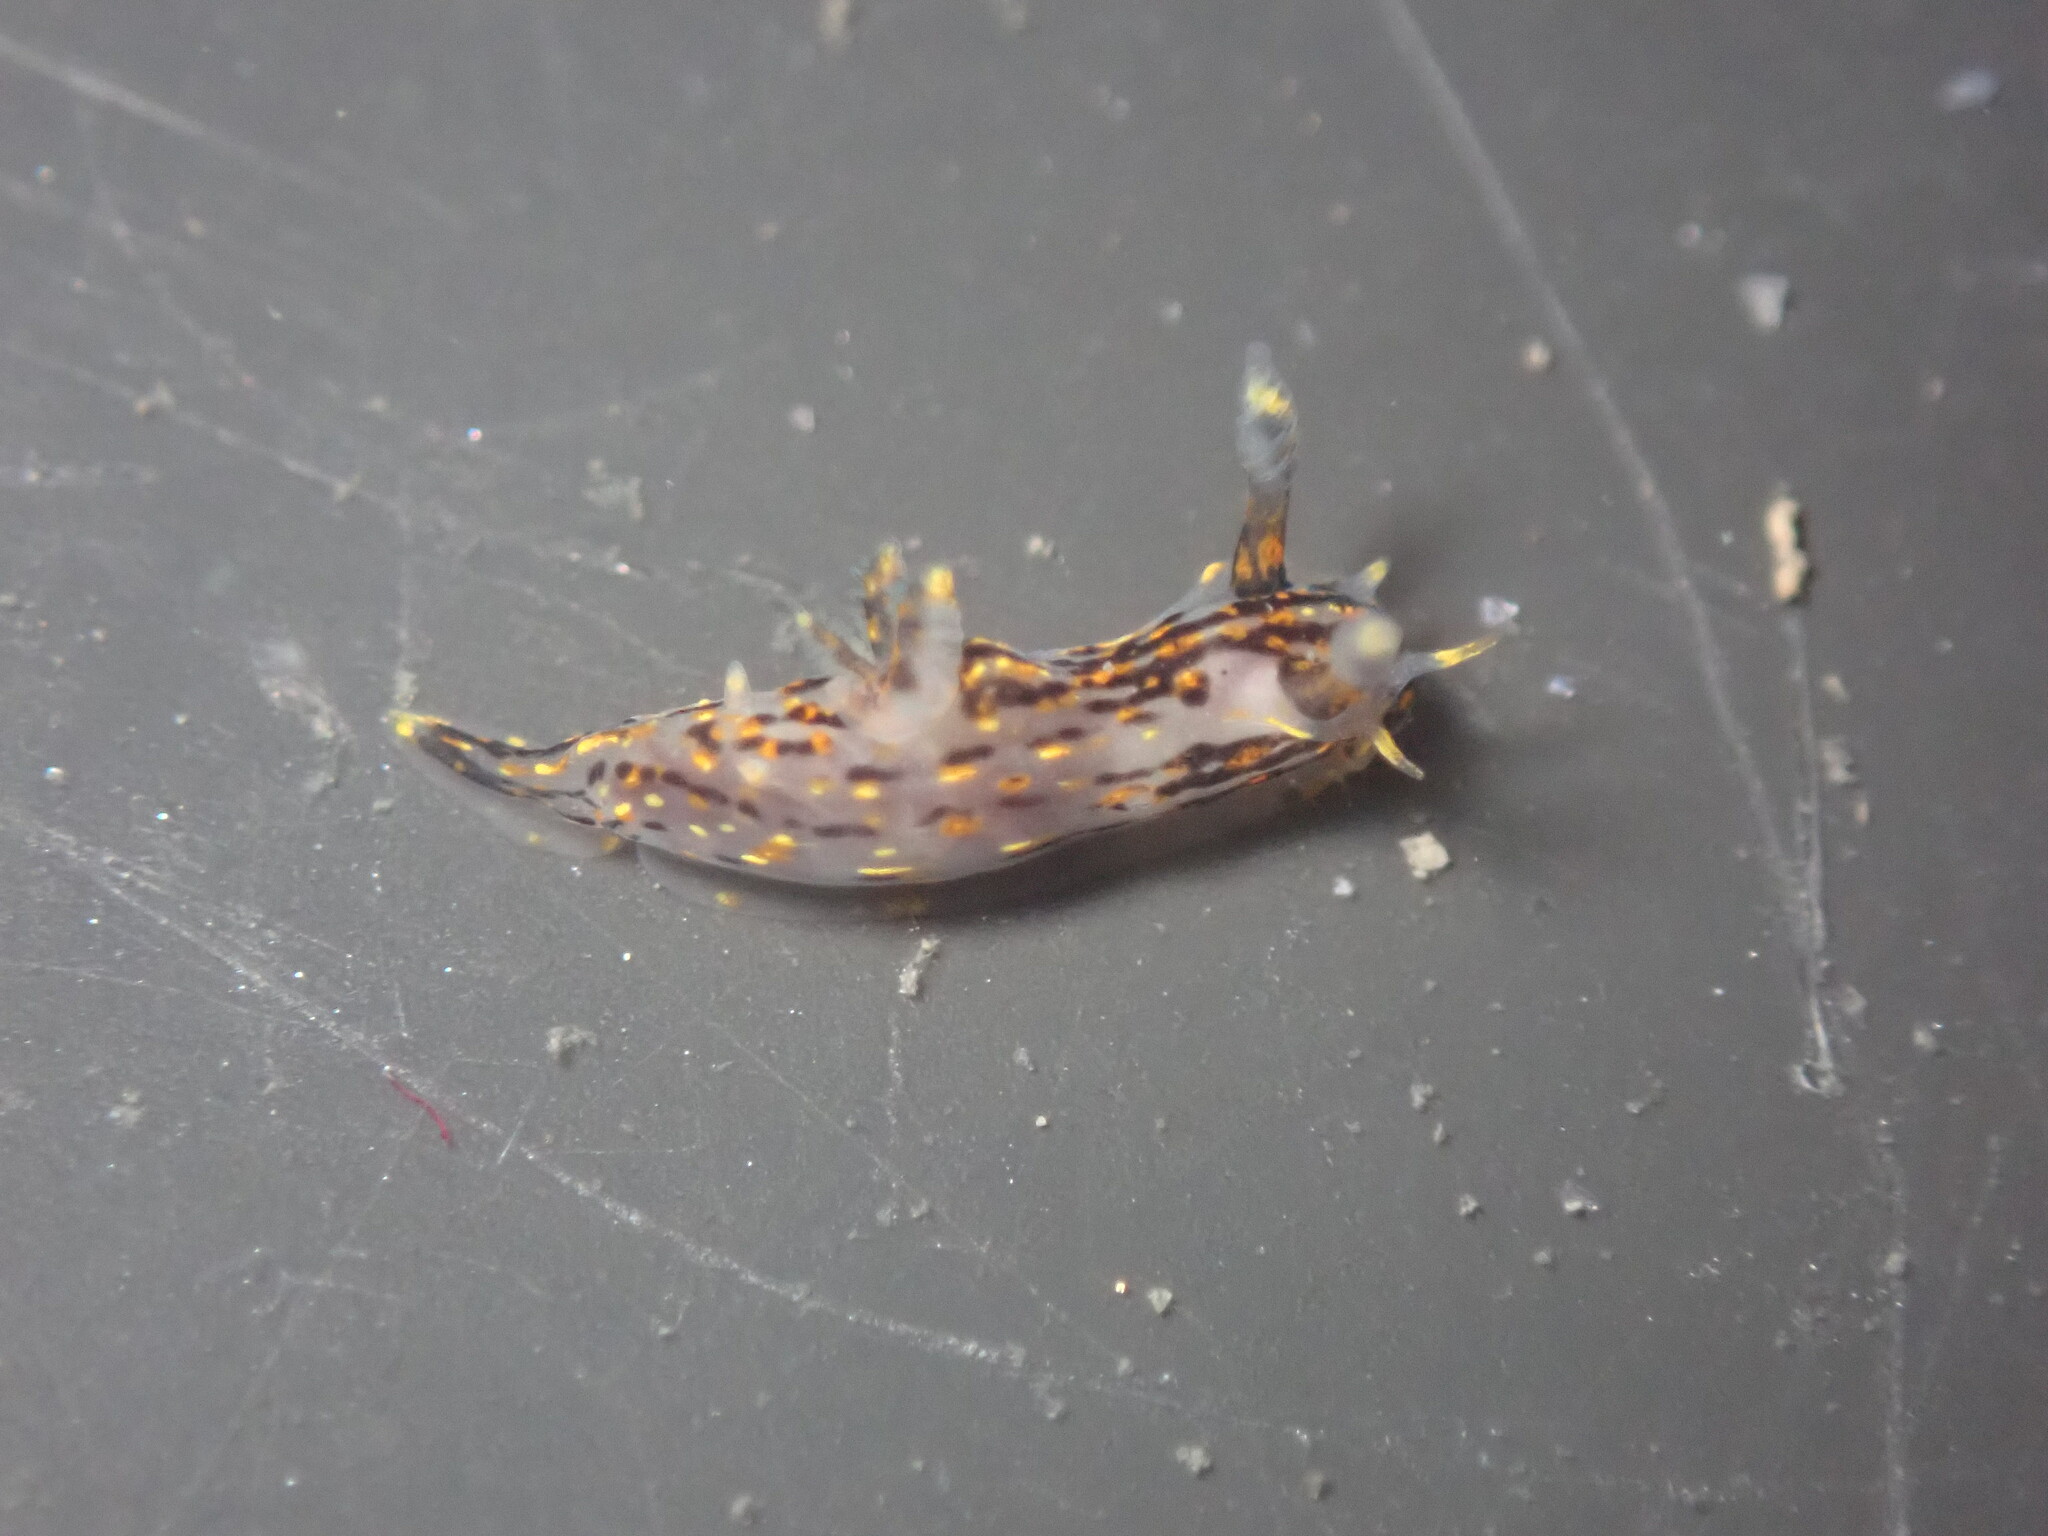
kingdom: Animalia
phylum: Mollusca
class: Gastropoda
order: Nudibranchia
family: Polyceridae
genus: Polycera
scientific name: Polycera atra
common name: Orange-spike polycera
